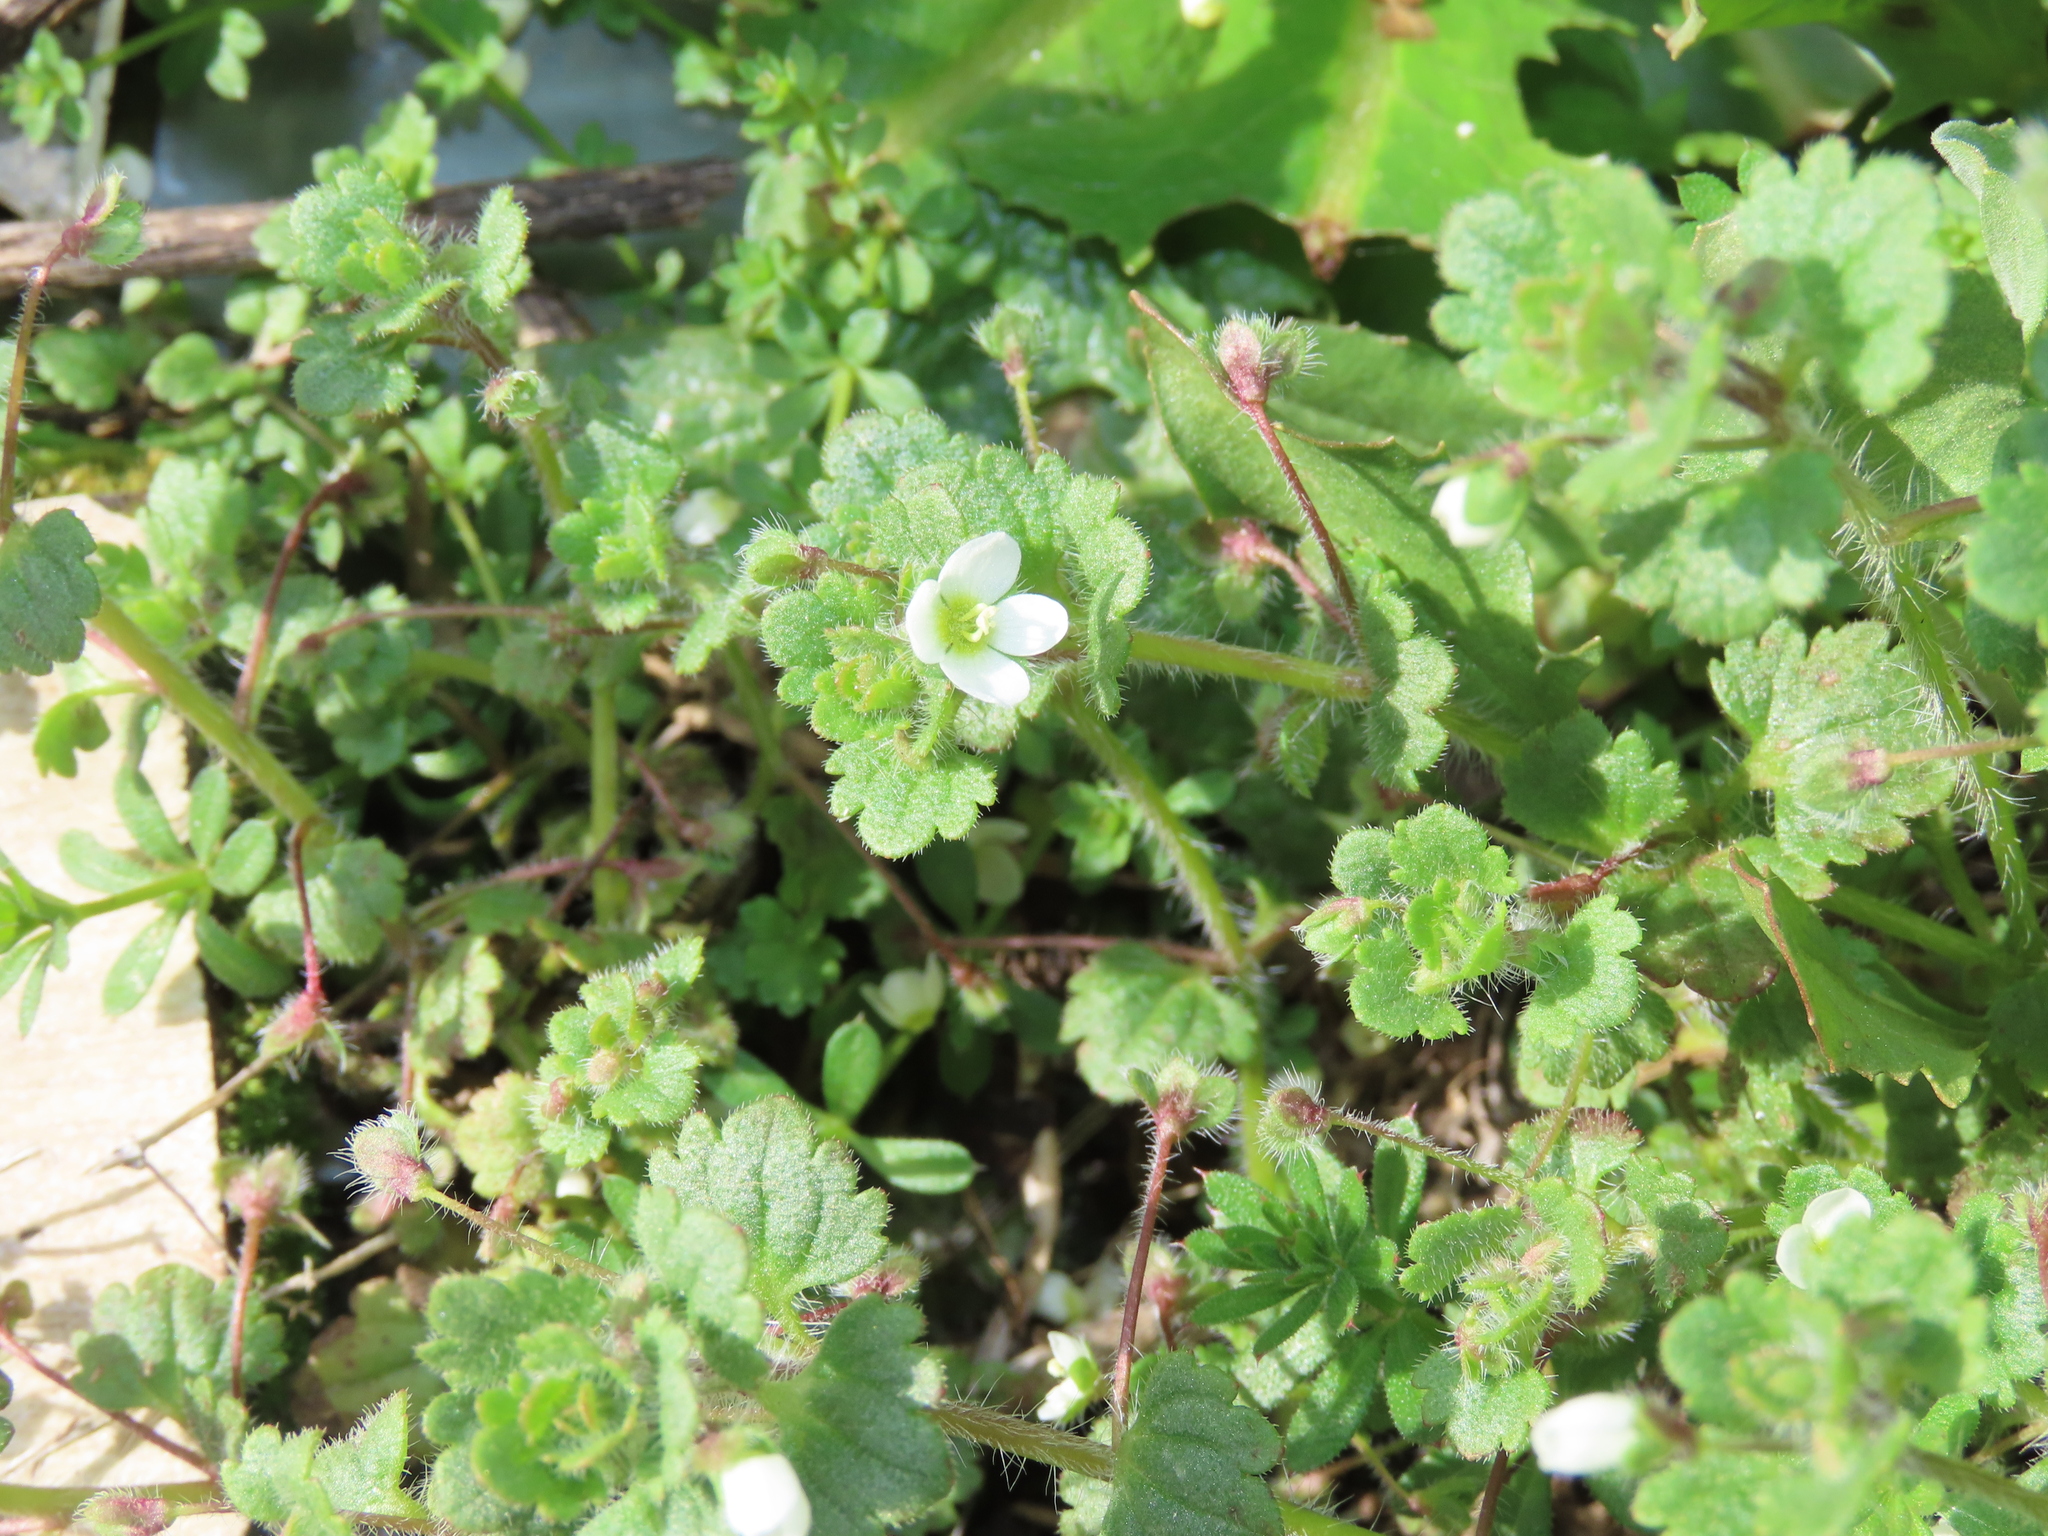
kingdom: Plantae
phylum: Tracheophyta
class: Magnoliopsida
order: Lamiales
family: Plantaginaceae
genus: Veronica
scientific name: Veronica cymbalaria
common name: Pale speedwell
